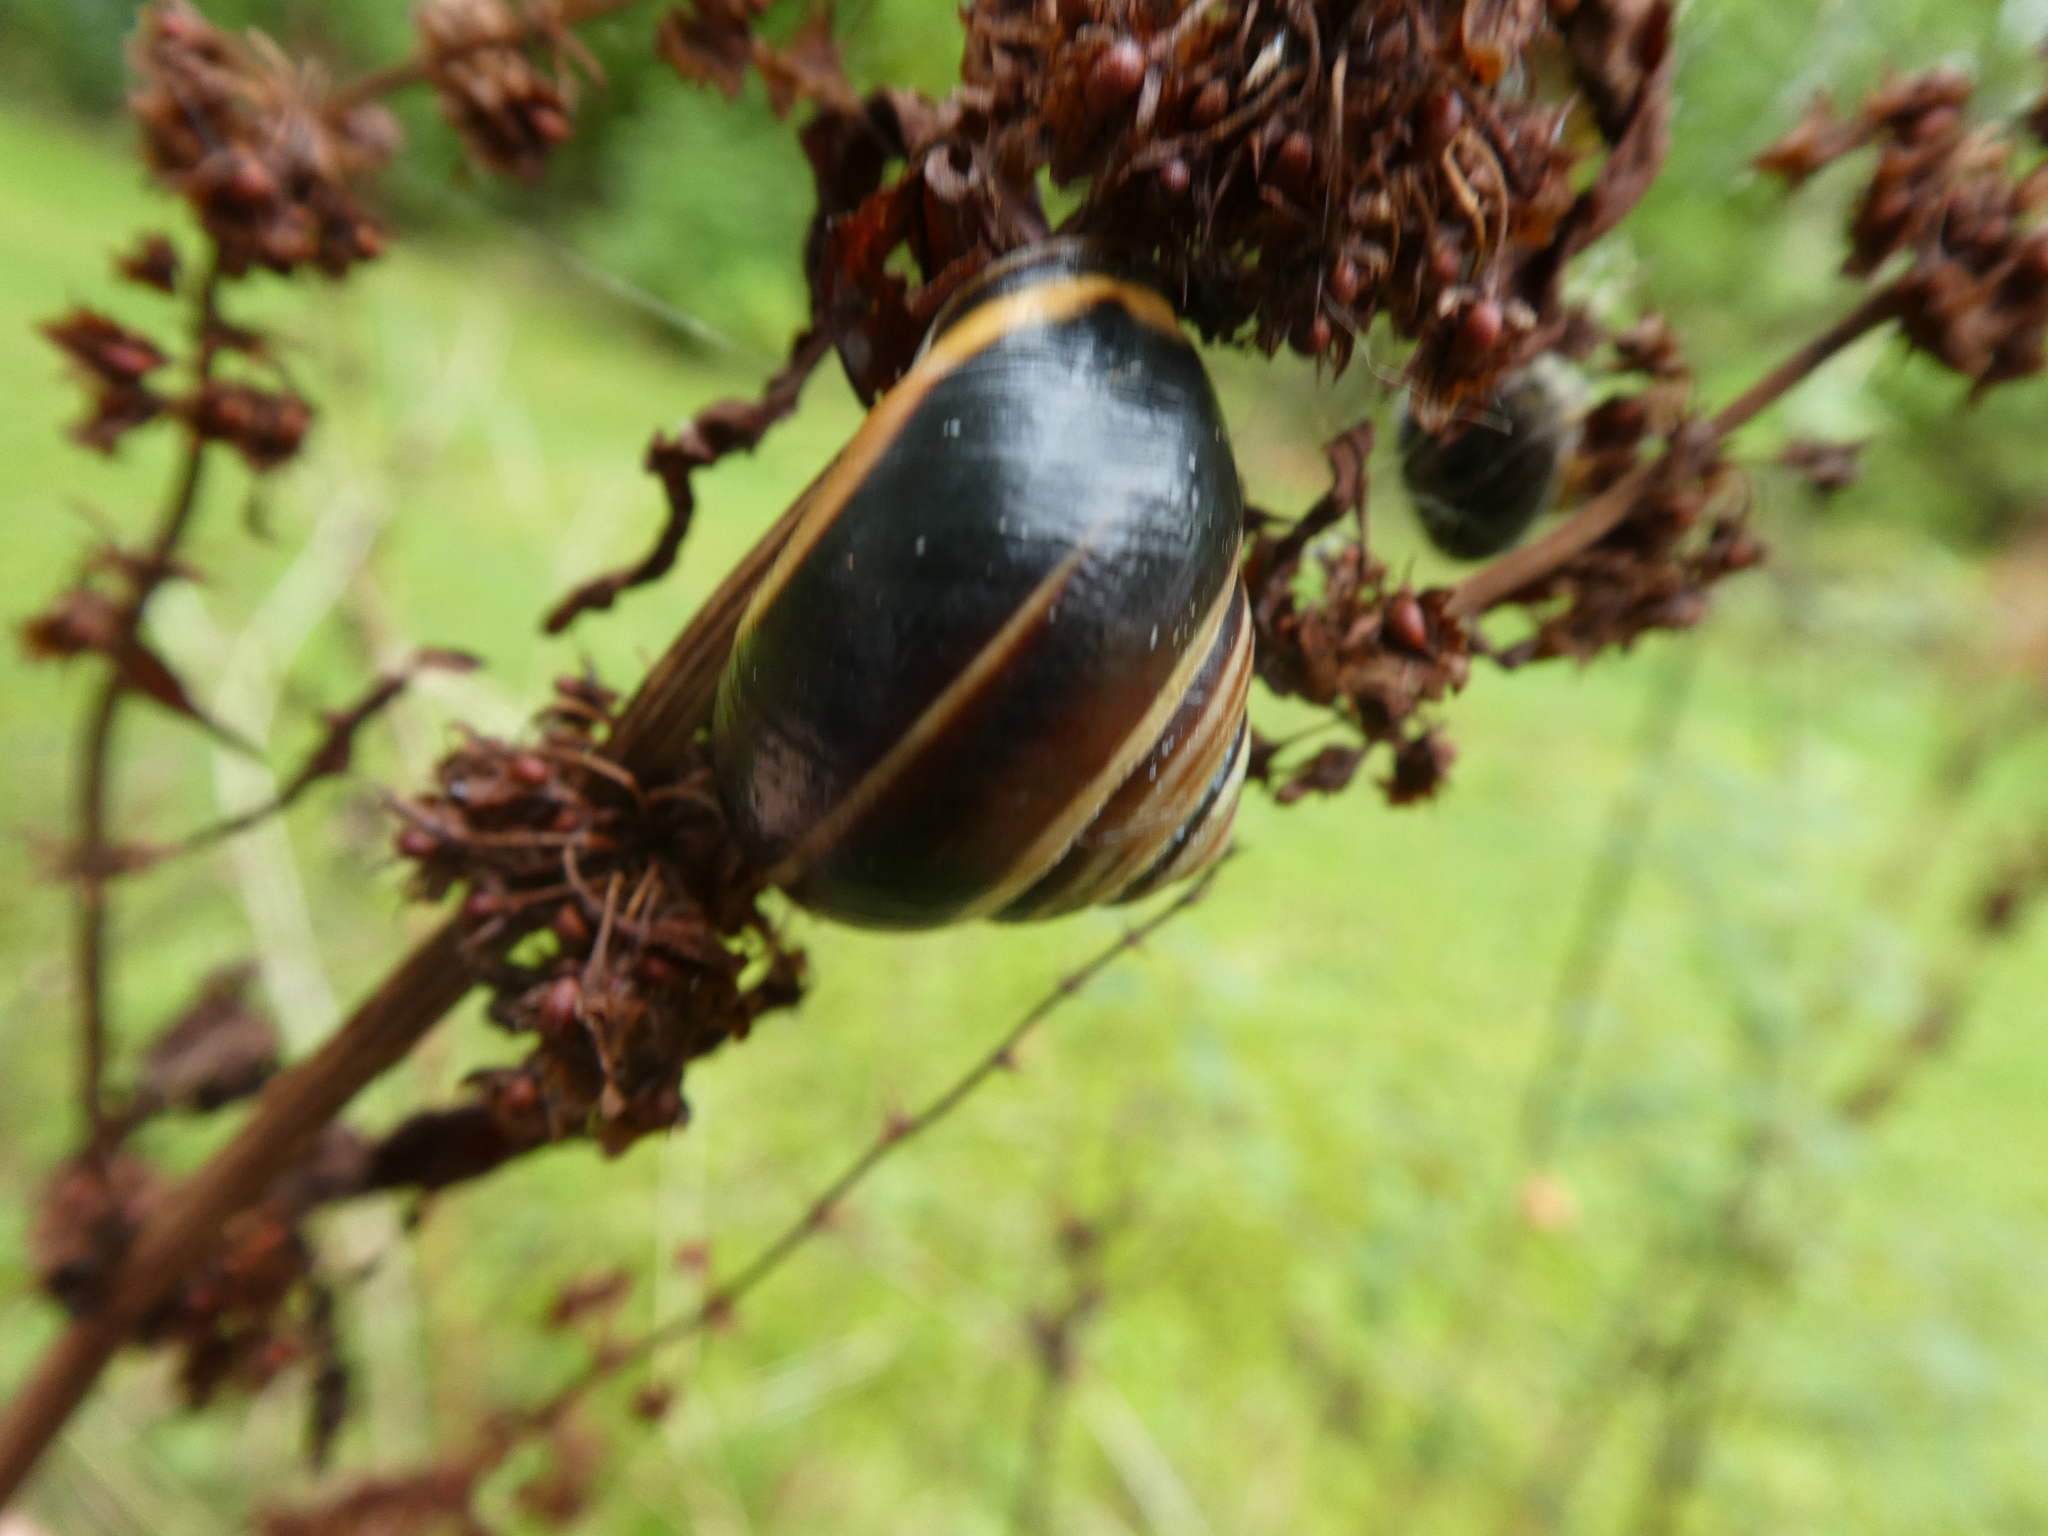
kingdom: Animalia
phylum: Mollusca
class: Gastropoda
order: Stylommatophora
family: Helicidae
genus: Cepaea
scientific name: Cepaea nemoralis
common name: Grovesnail
